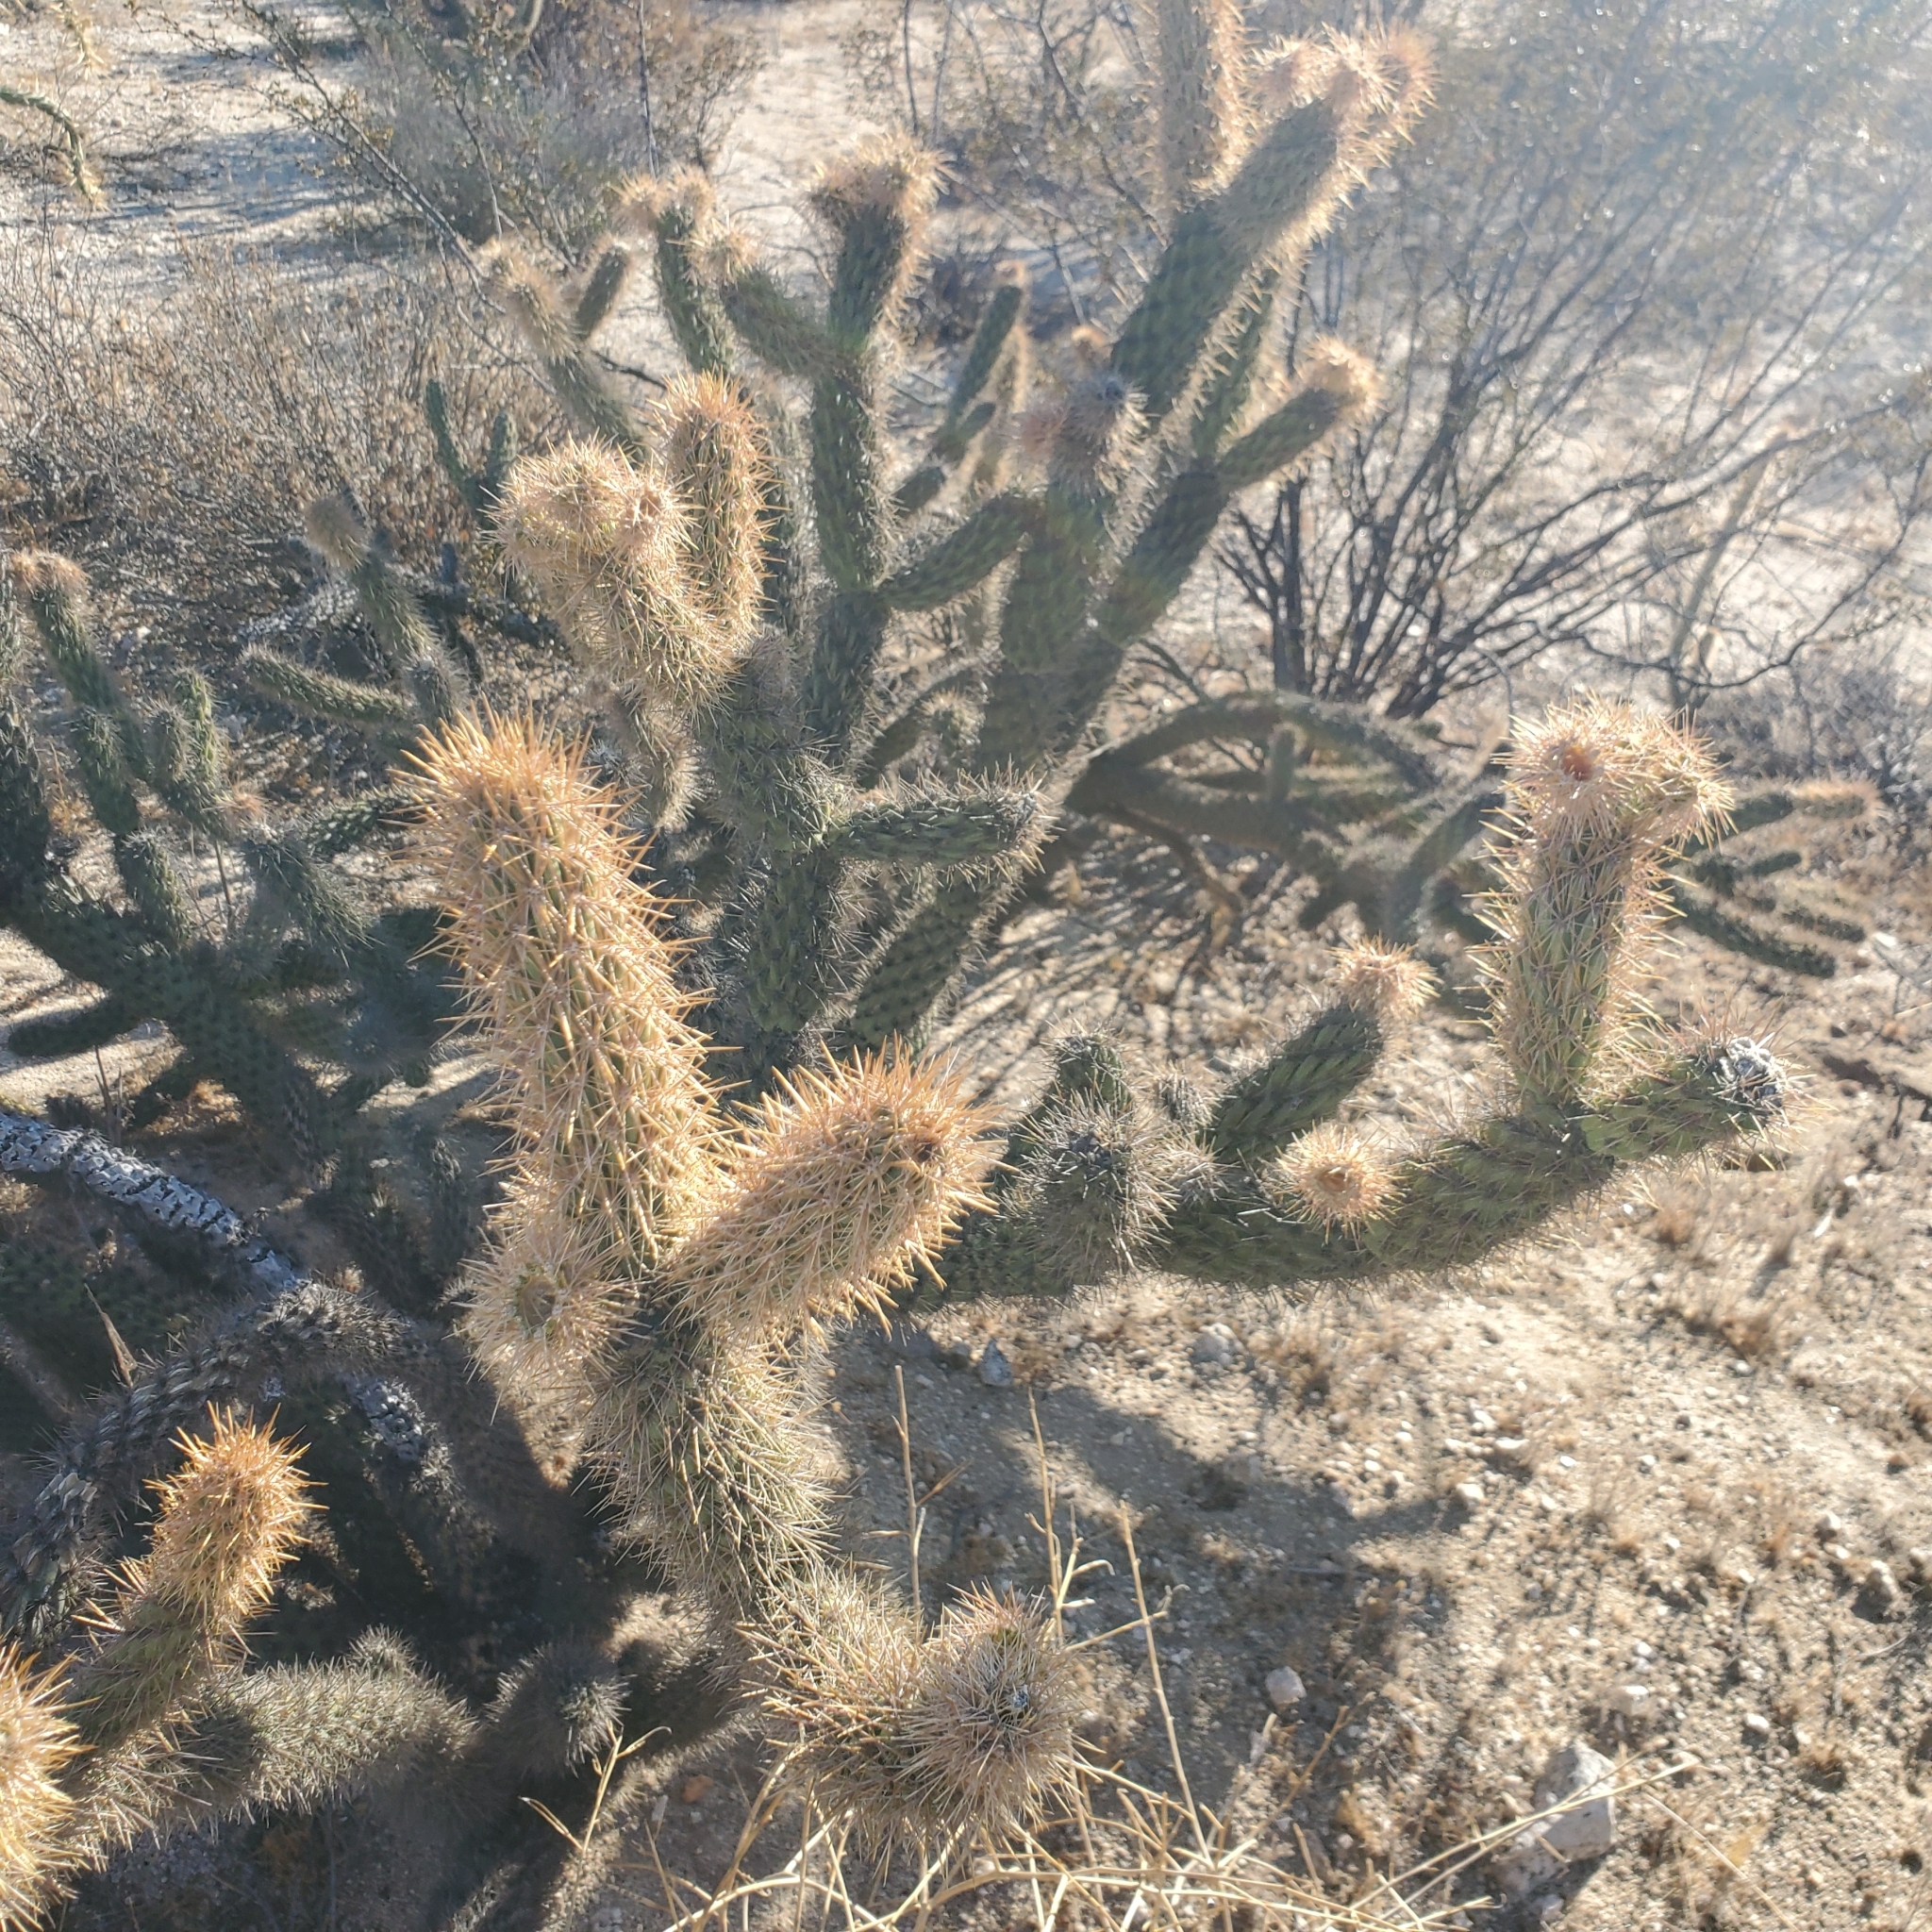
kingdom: Plantae
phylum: Tracheophyta
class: Magnoliopsida
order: Caryophyllales
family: Cactaceae
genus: Cylindropuntia
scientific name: Cylindropuntia ganderi
